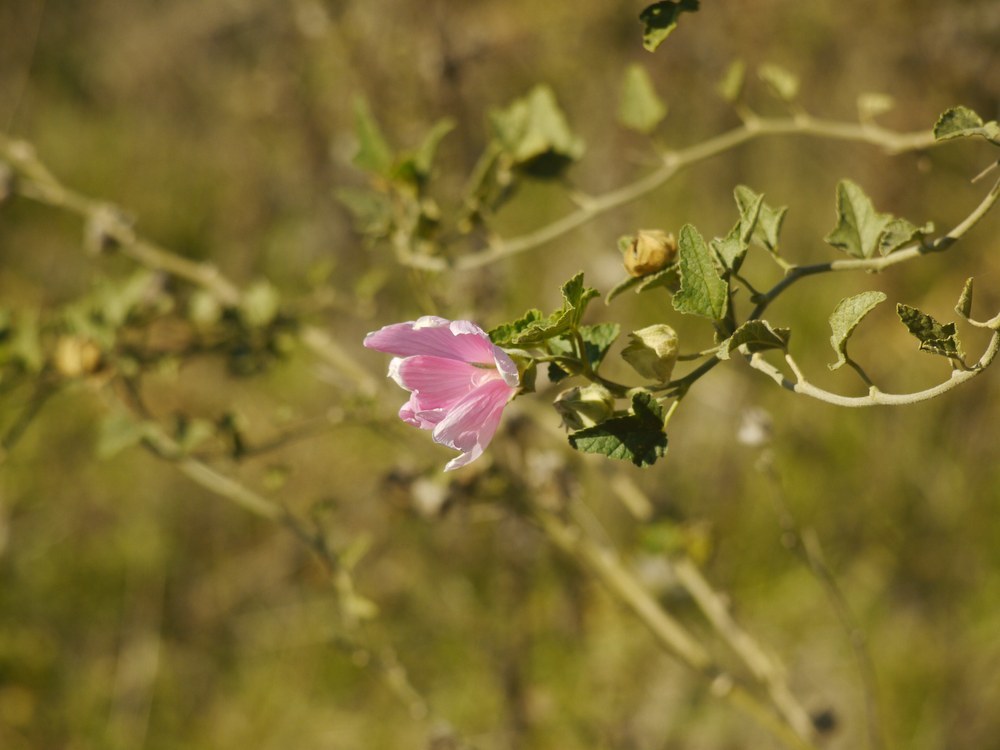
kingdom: Plantae
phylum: Tracheophyta
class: Magnoliopsida
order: Malvales
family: Malvaceae
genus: Malva
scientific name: Malva thuringiaca
